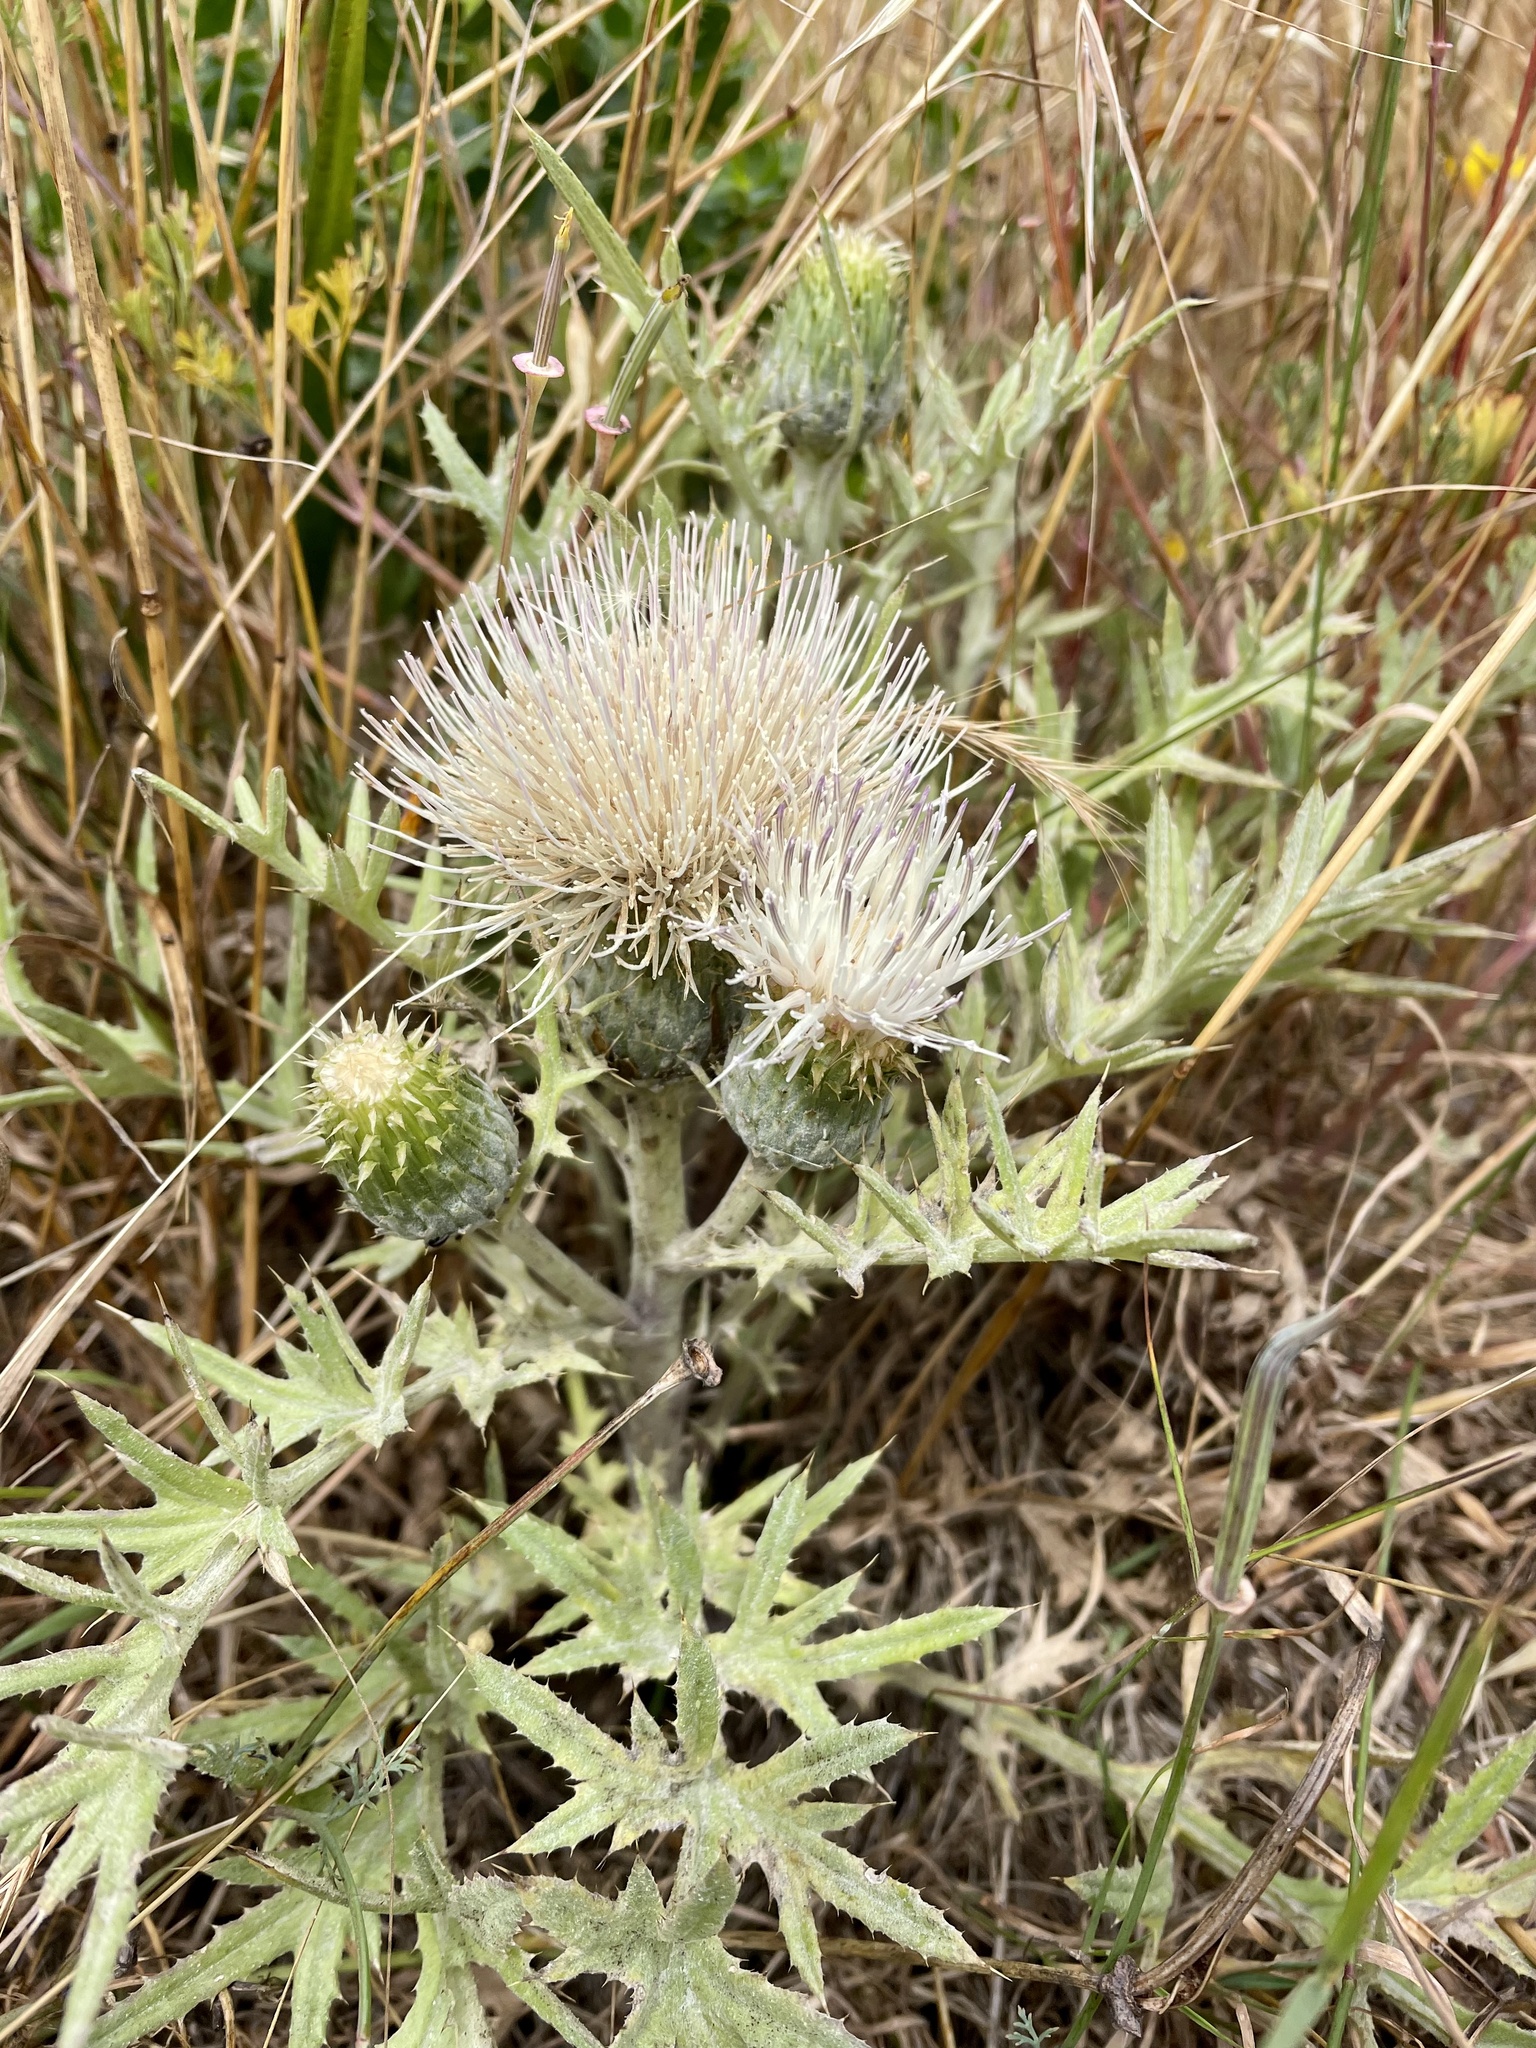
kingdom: Plantae
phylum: Tracheophyta
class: Magnoliopsida
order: Asterales
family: Asteraceae
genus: Cirsium
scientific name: Cirsium quercetorum
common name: Alameda county thistle
